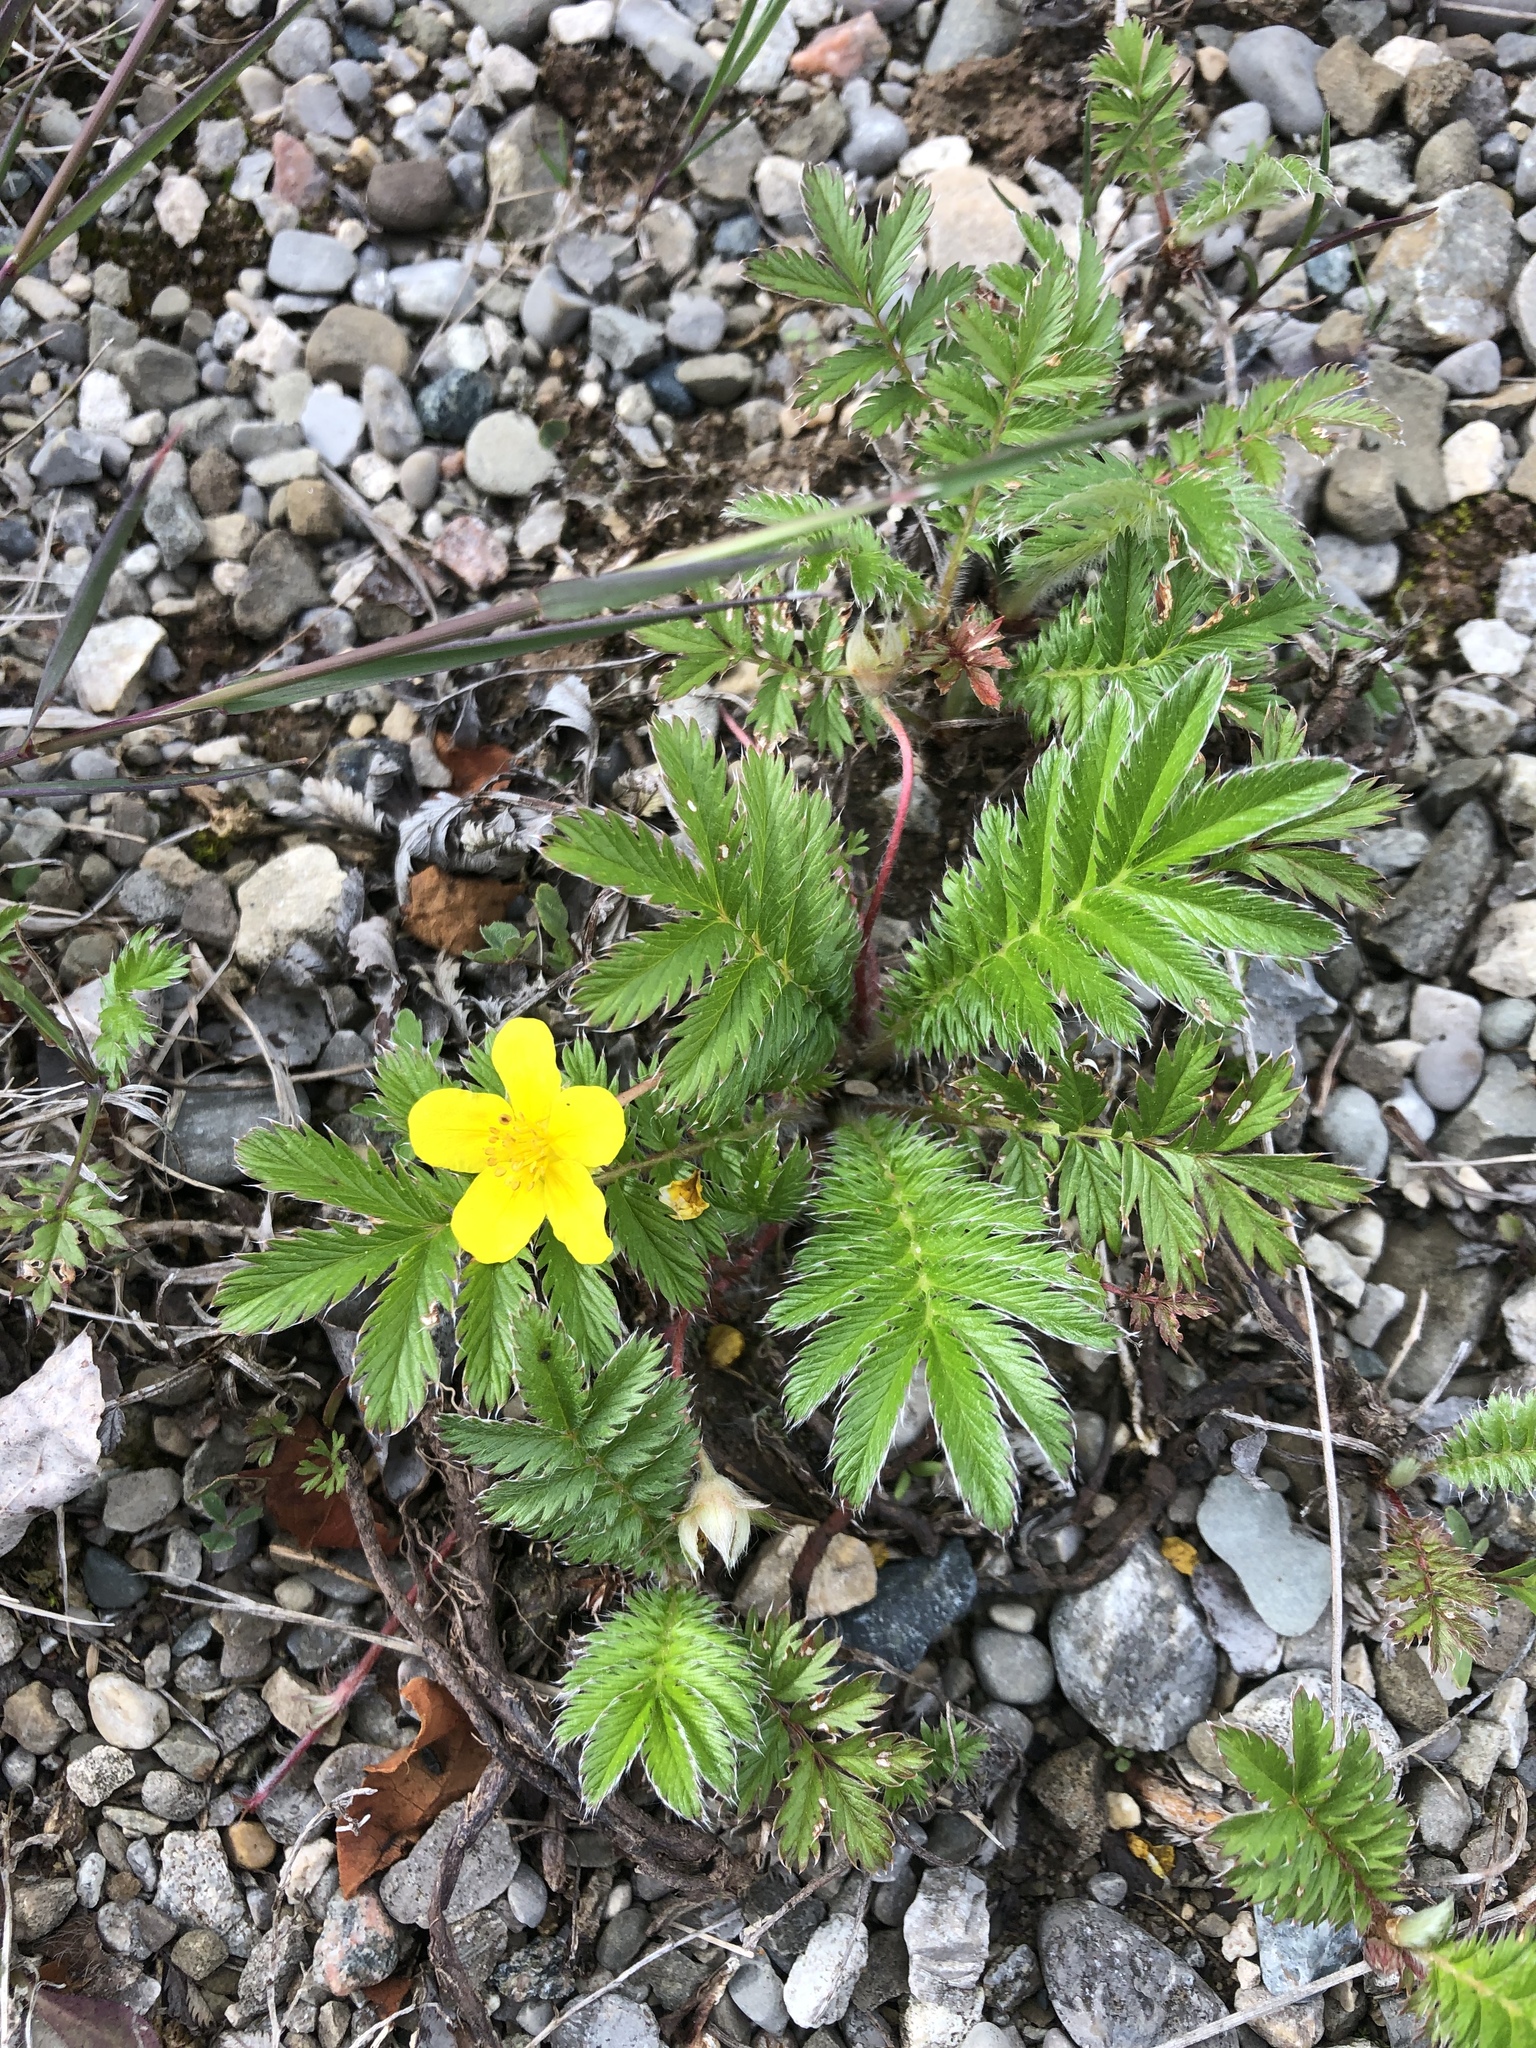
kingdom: Plantae
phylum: Tracheophyta
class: Magnoliopsida
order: Rosales
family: Rosaceae
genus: Argentina
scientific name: Argentina anserina
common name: Common silverweed
